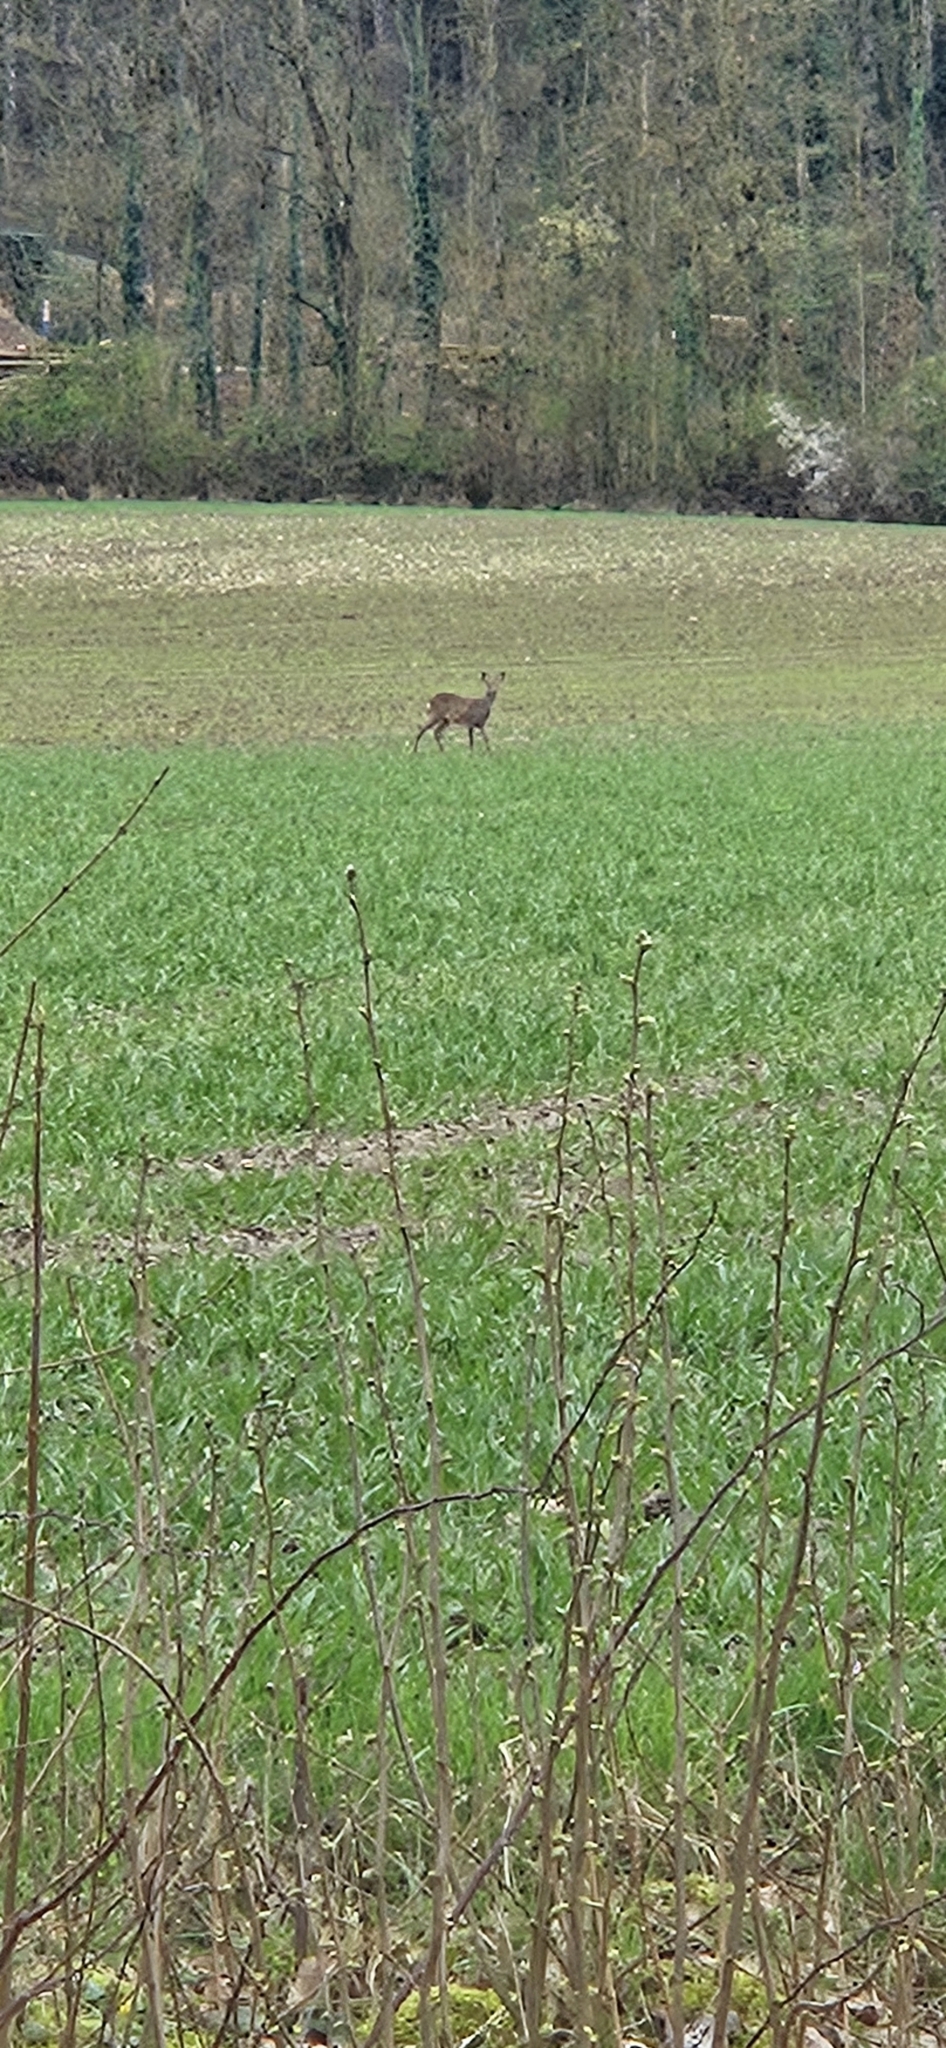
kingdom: Animalia
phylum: Chordata
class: Mammalia
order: Artiodactyla
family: Cervidae
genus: Capreolus
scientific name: Capreolus capreolus
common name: Western roe deer
